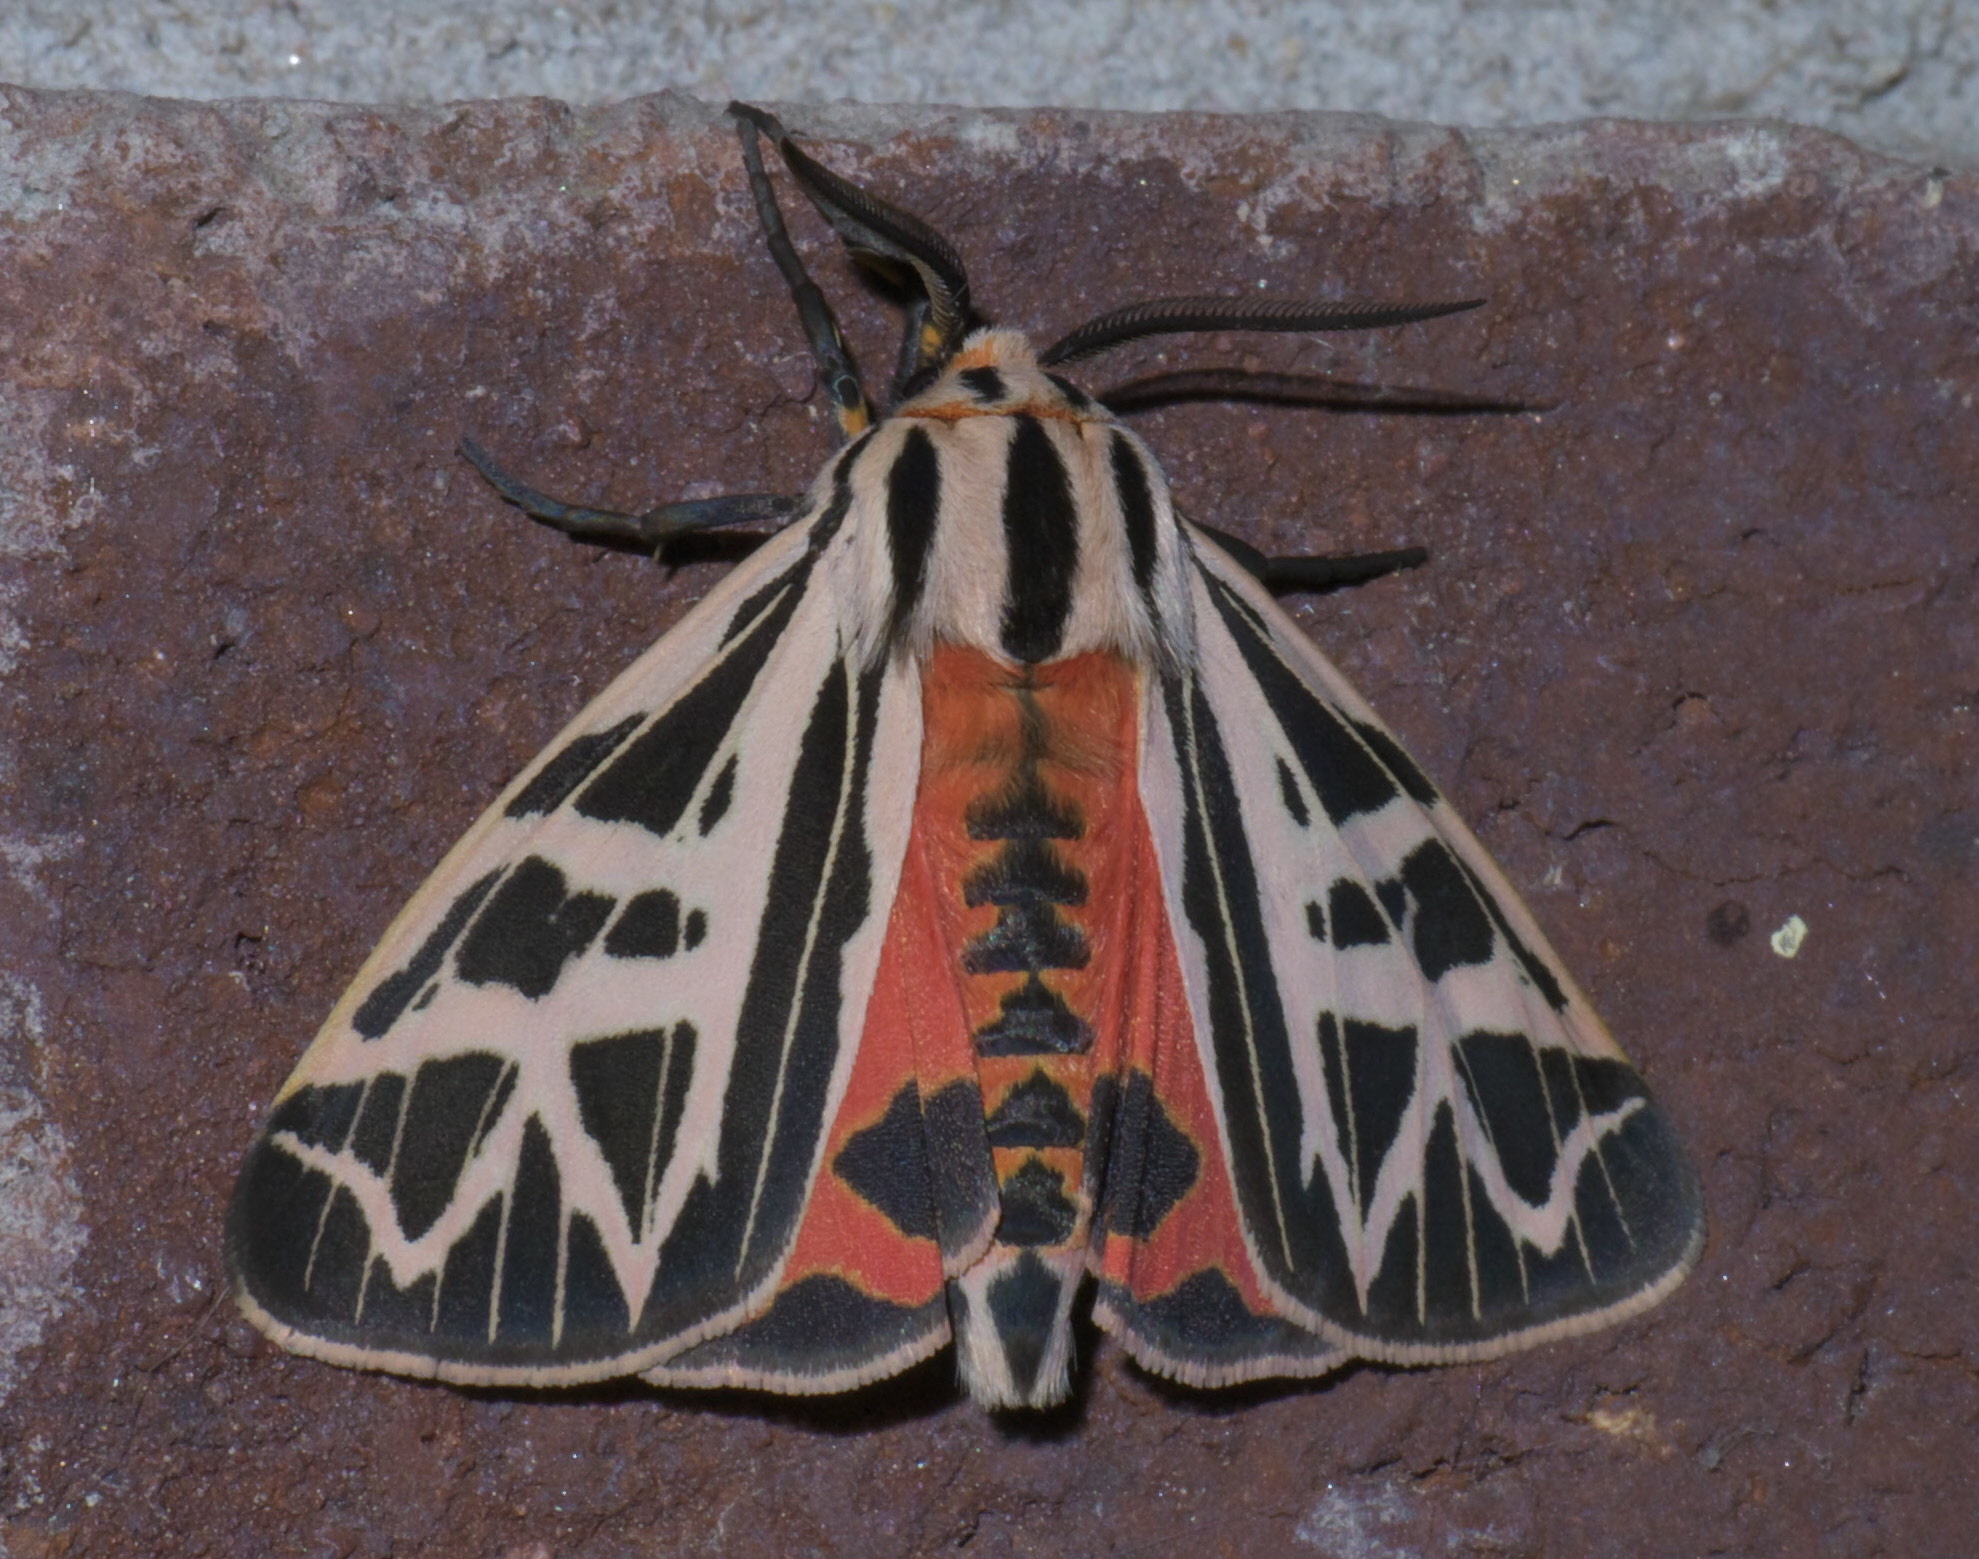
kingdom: Animalia
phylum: Arthropoda
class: Insecta
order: Lepidoptera
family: Erebidae
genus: Apantesis
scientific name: Apantesis
